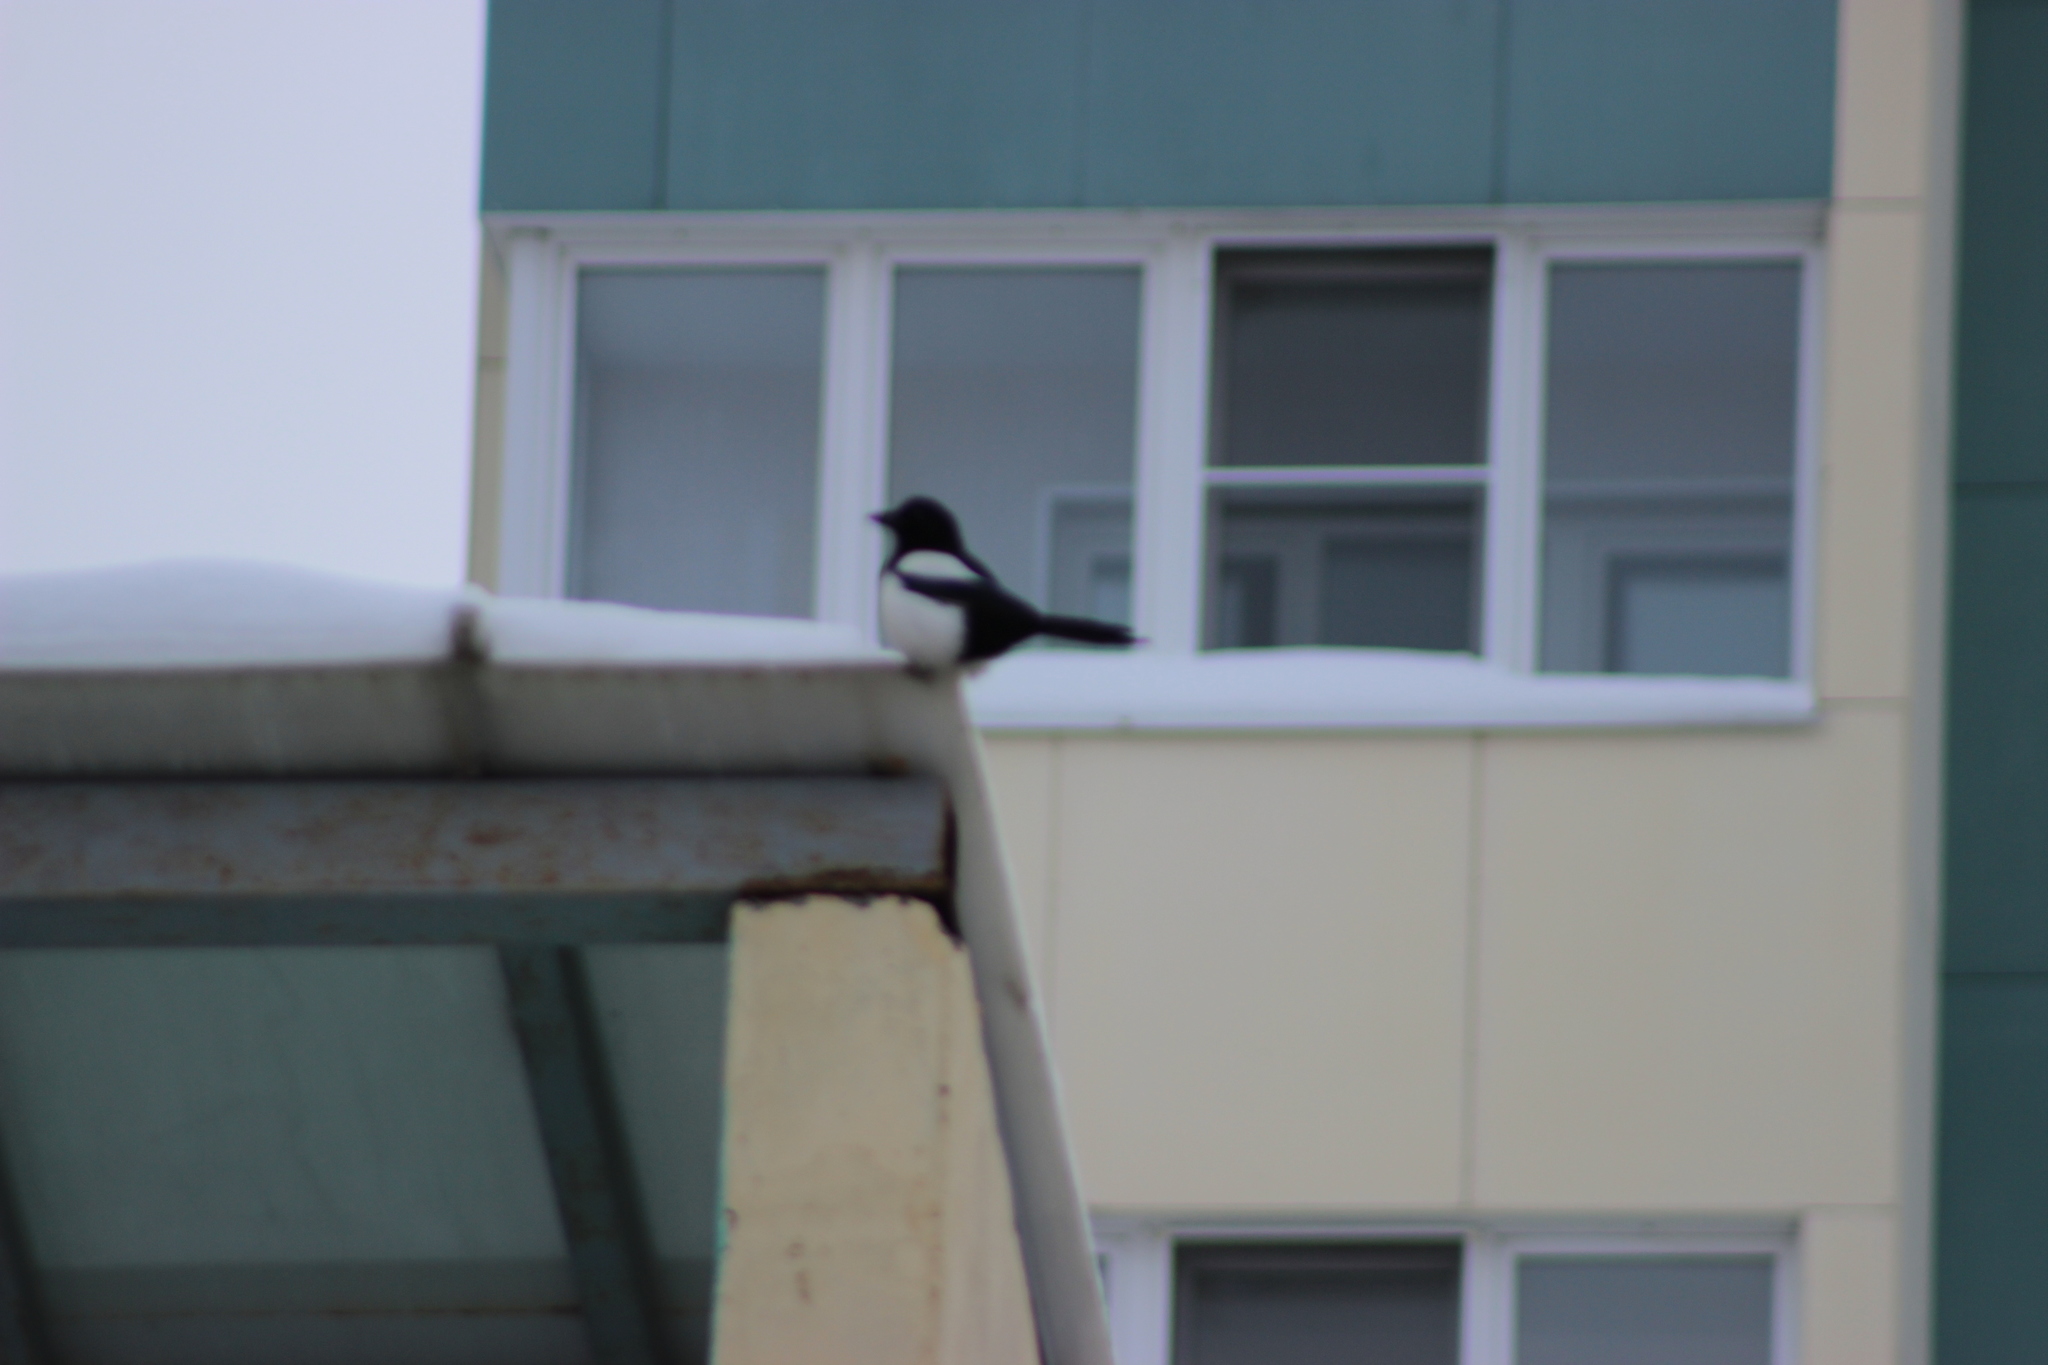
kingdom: Animalia
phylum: Chordata
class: Aves
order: Passeriformes
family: Corvidae
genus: Pica
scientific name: Pica pica
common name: Eurasian magpie
